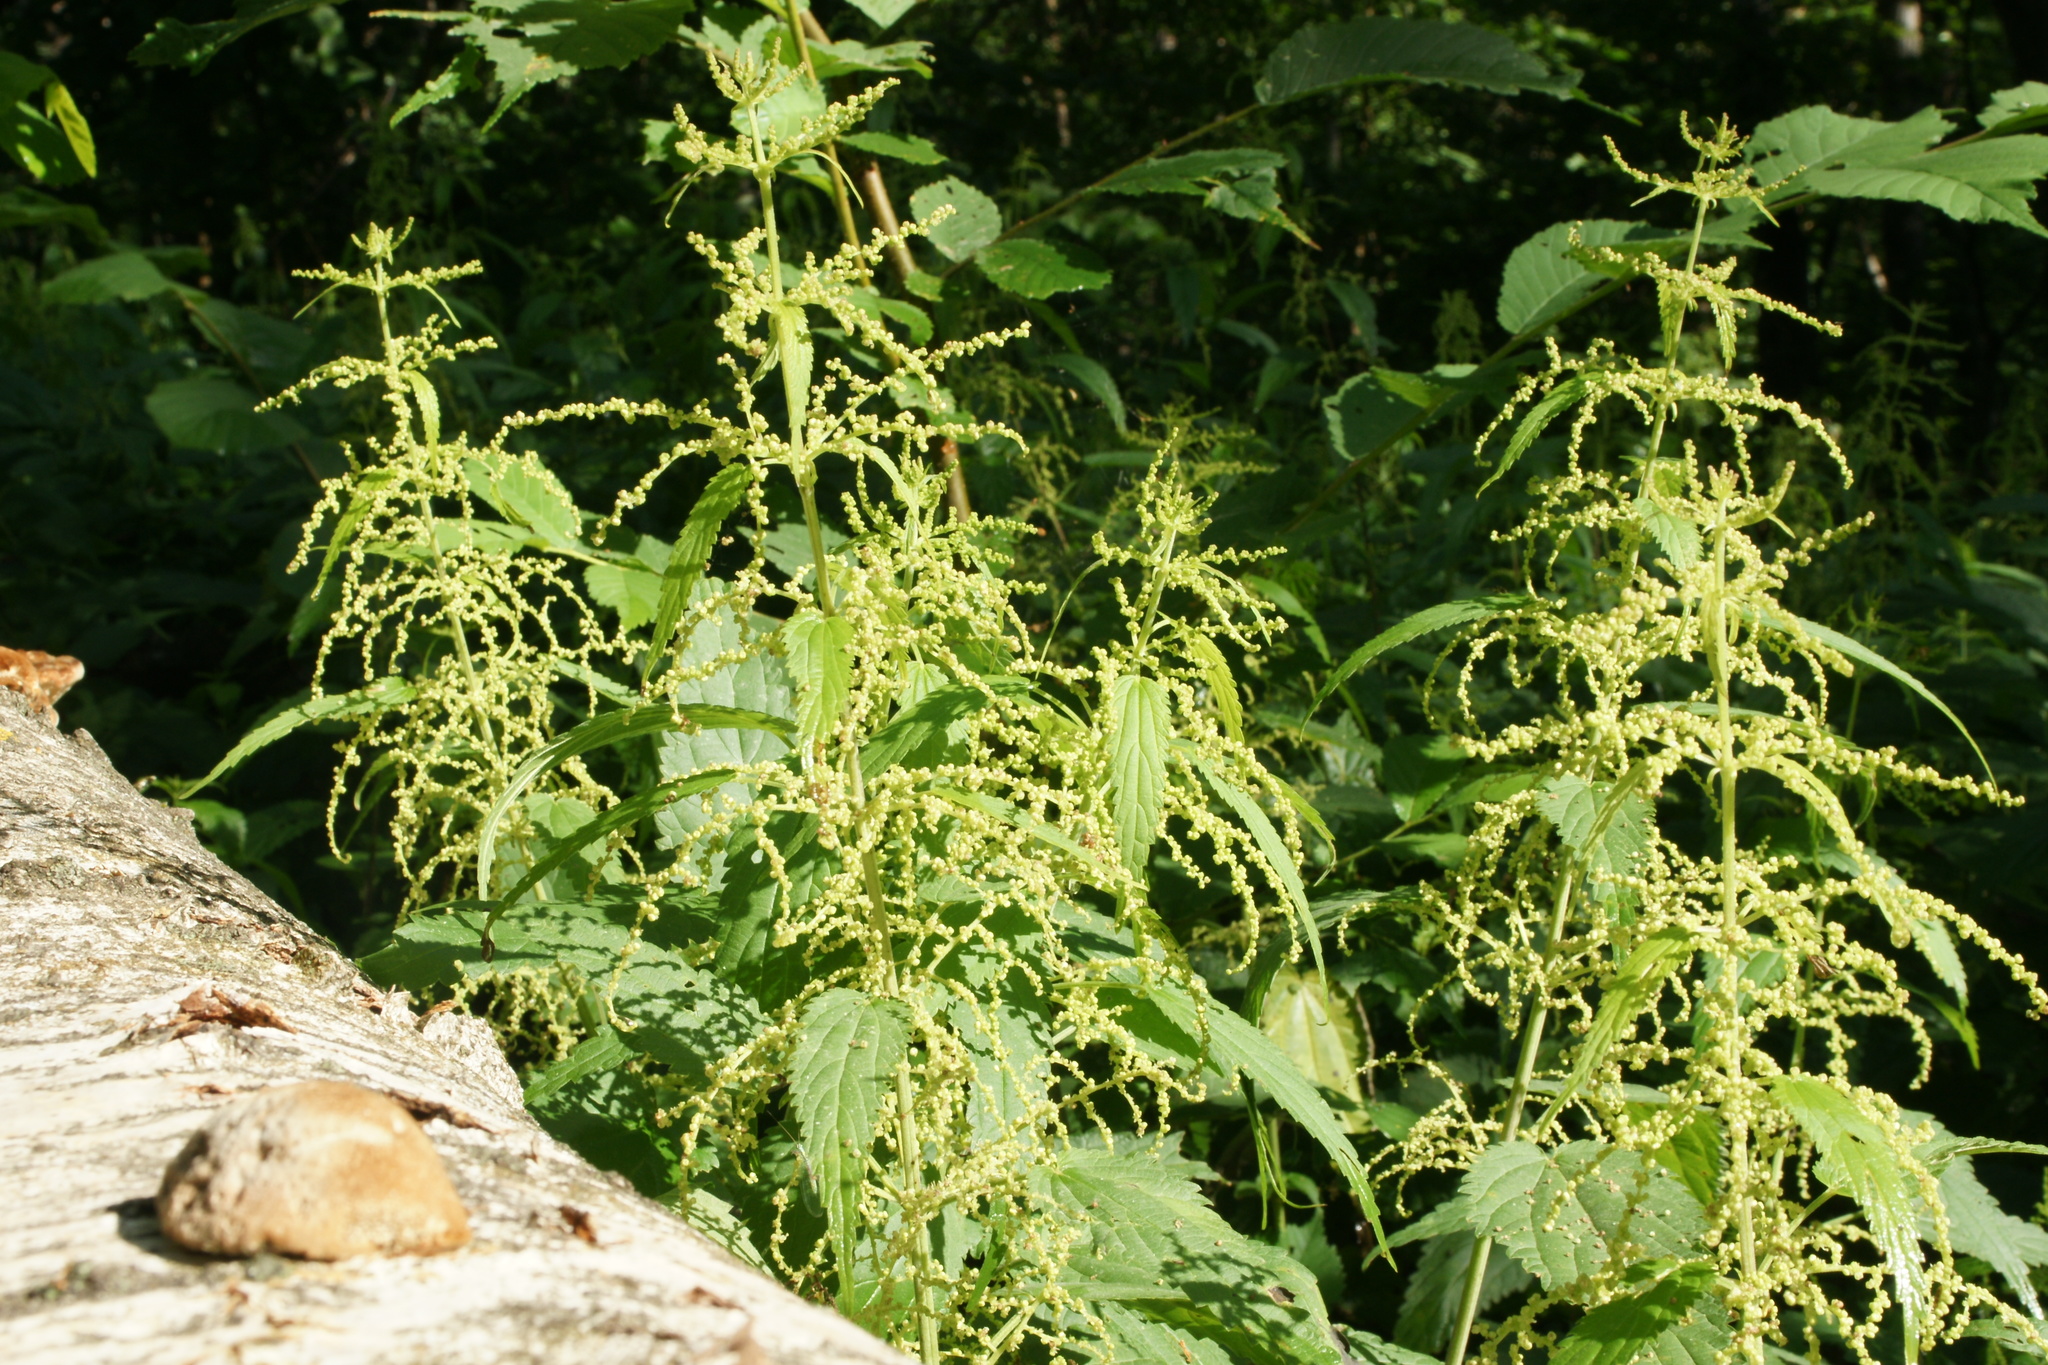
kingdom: Plantae
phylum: Tracheophyta
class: Magnoliopsida
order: Rosales
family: Urticaceae
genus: Urtica
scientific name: Urtica dioica
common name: Common nettle
